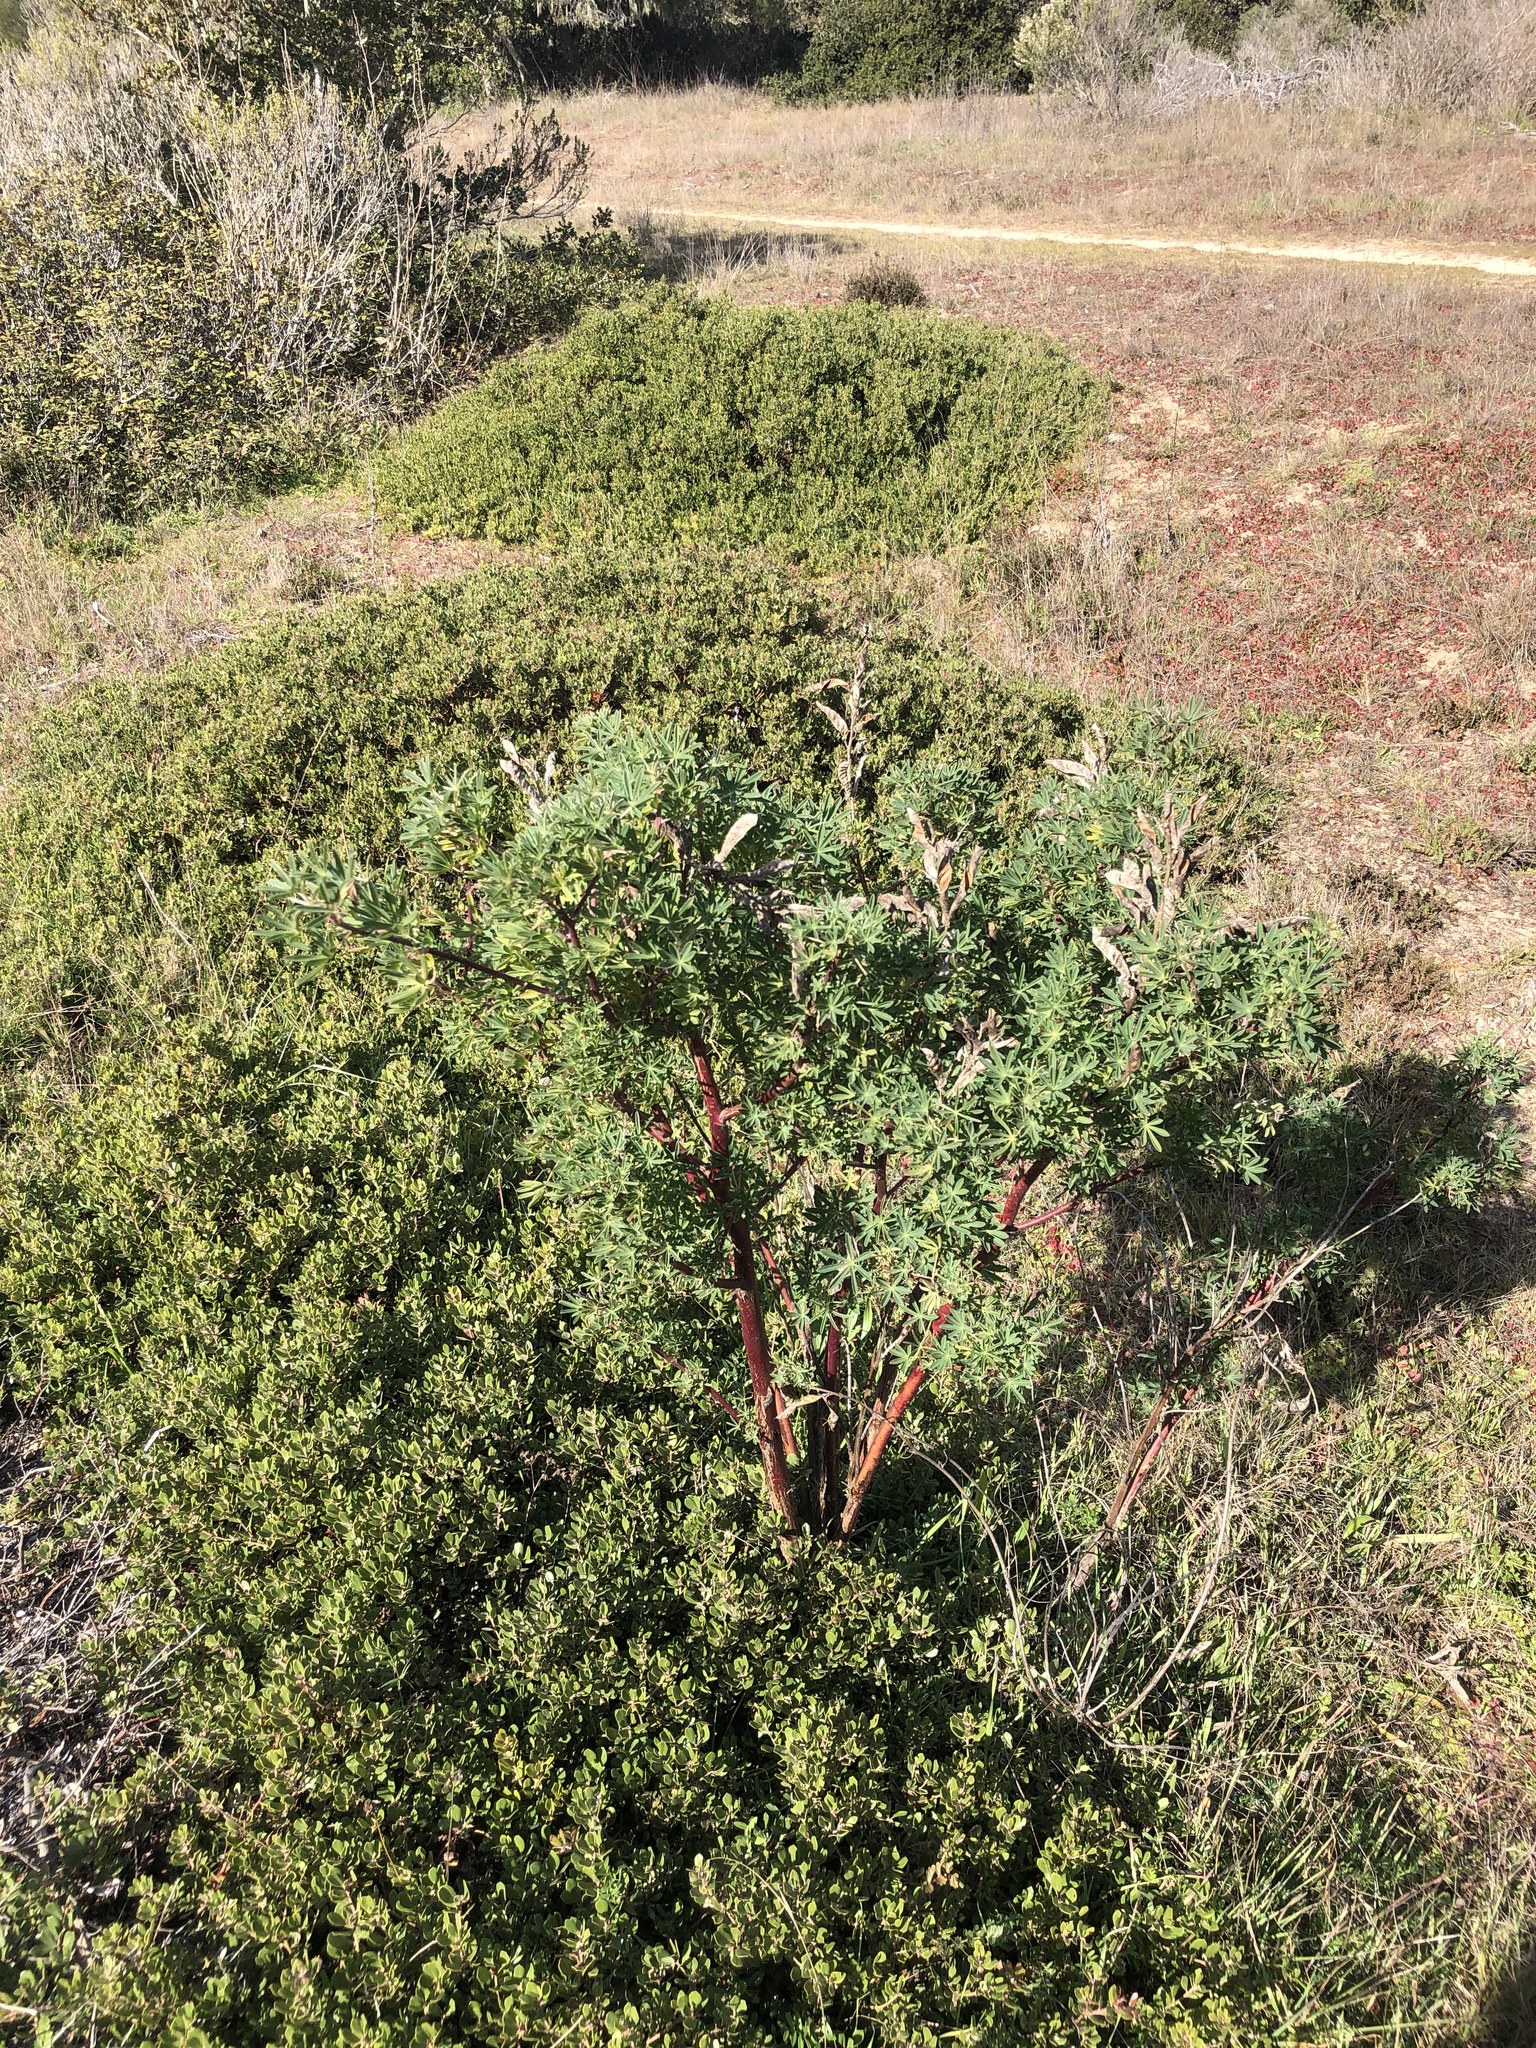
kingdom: Plantae
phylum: Tracheophyta
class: Magnoliopsida
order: Fabales
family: Fabaceae
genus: Lupinus
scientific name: Lupinus arboreus
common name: Yellow bush lupine
